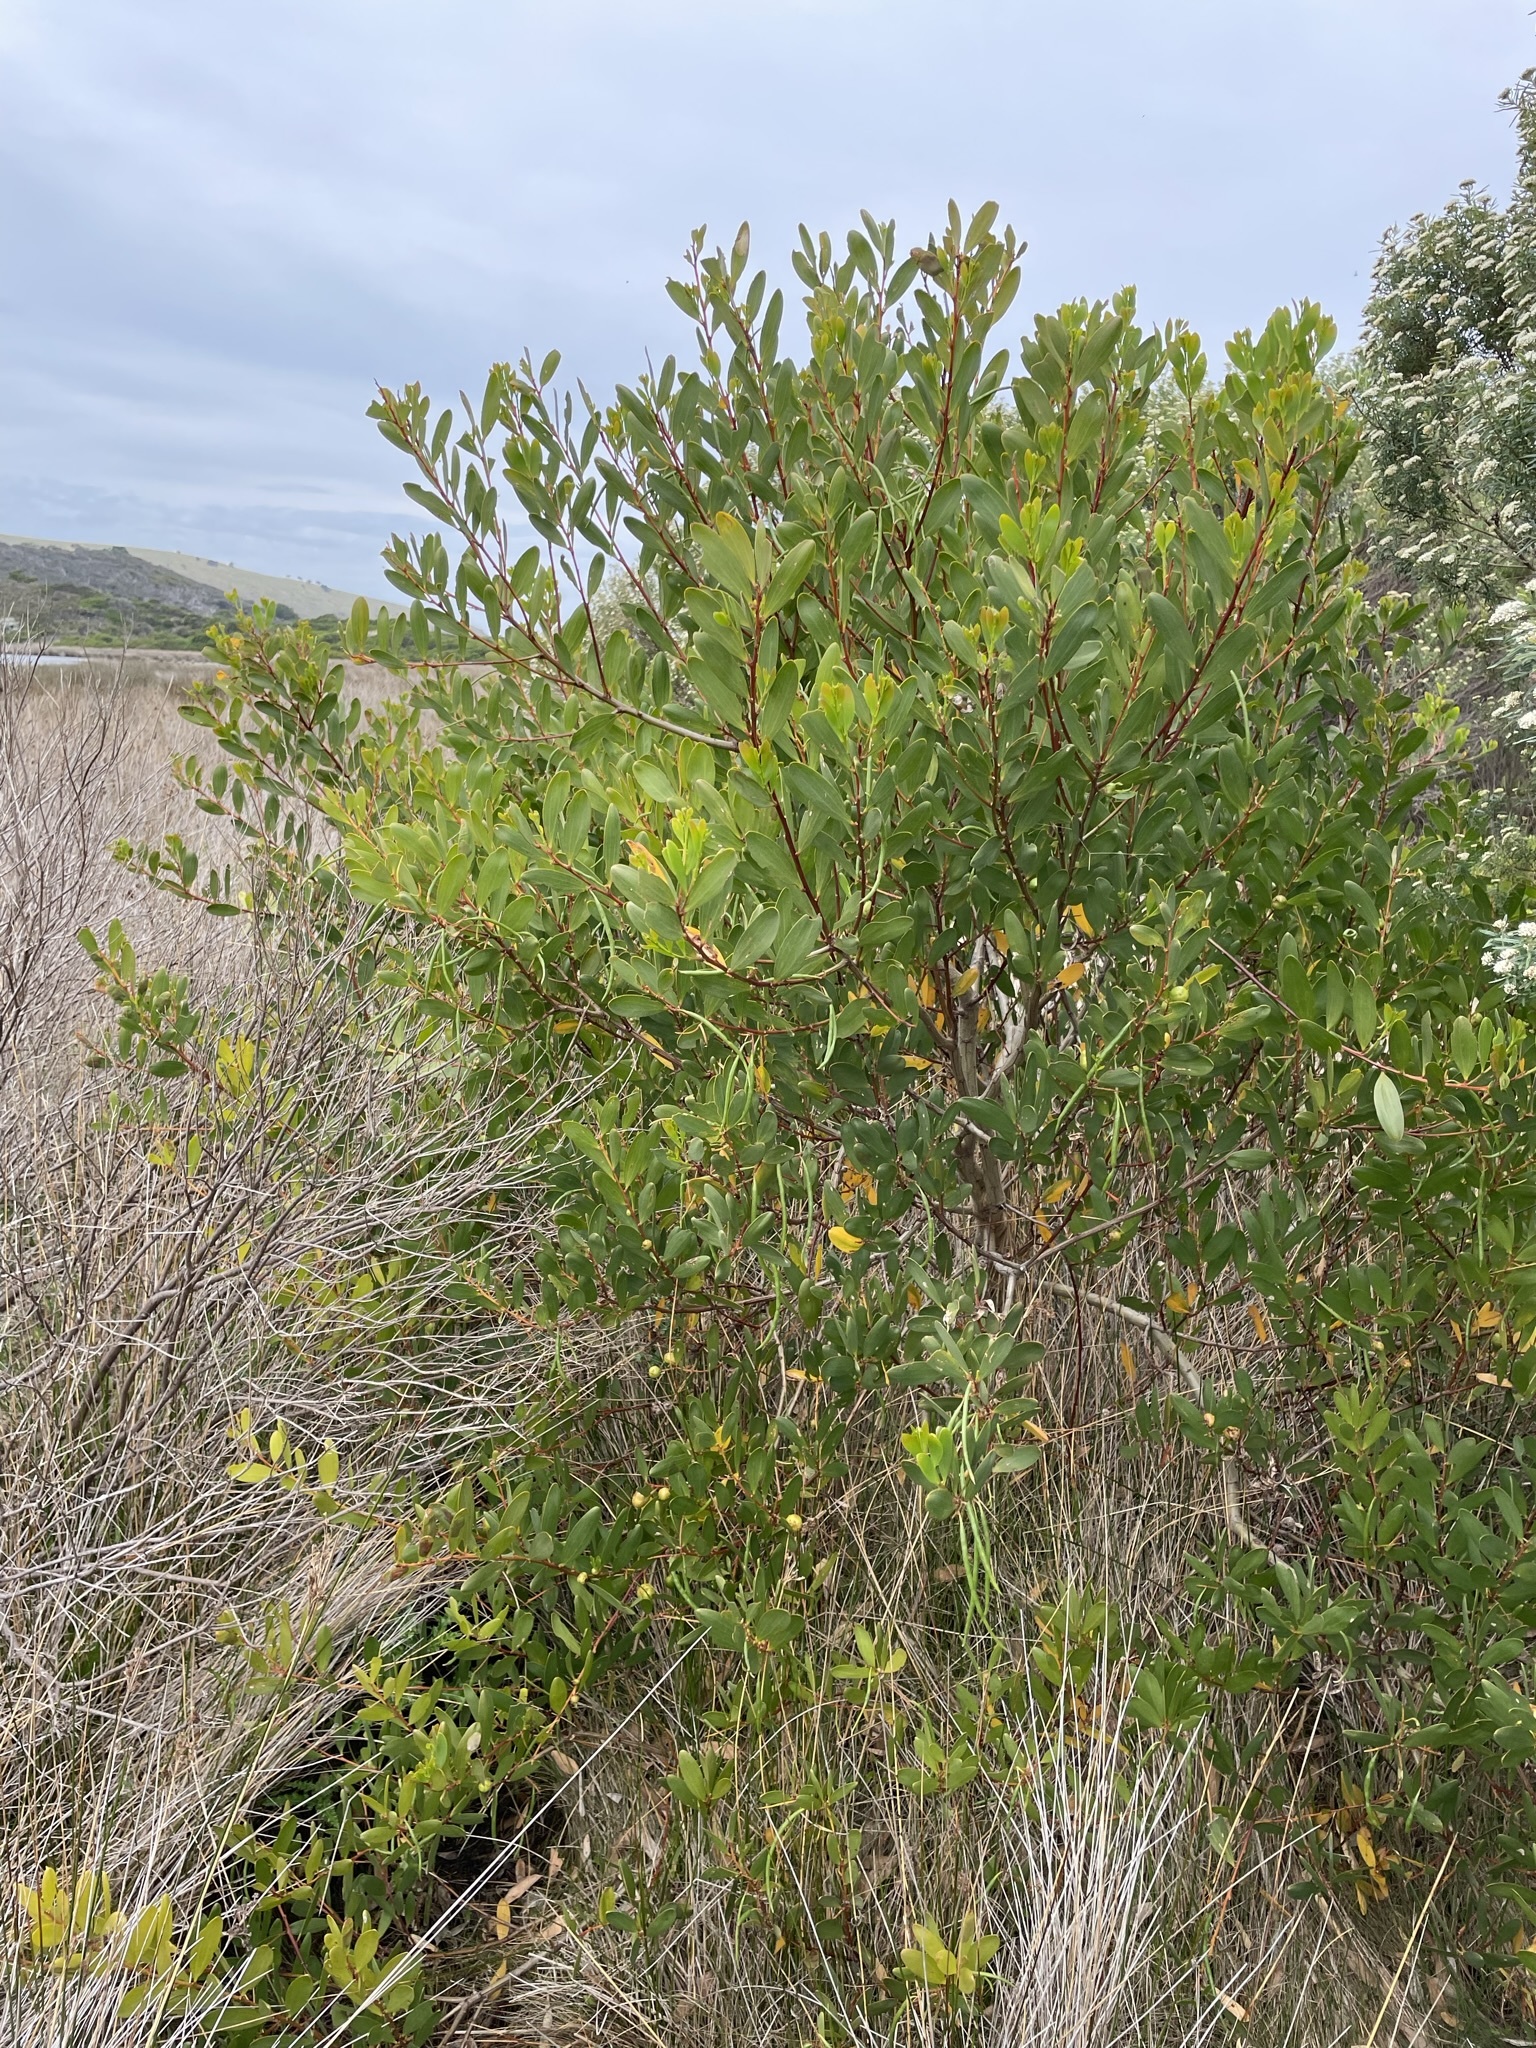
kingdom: Plantae
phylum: Tracheophyta
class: Magnoliopsida
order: Fabales
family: Fabaceae
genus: Acacia
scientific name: Acacia longifolia
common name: Sydney golden wattle
